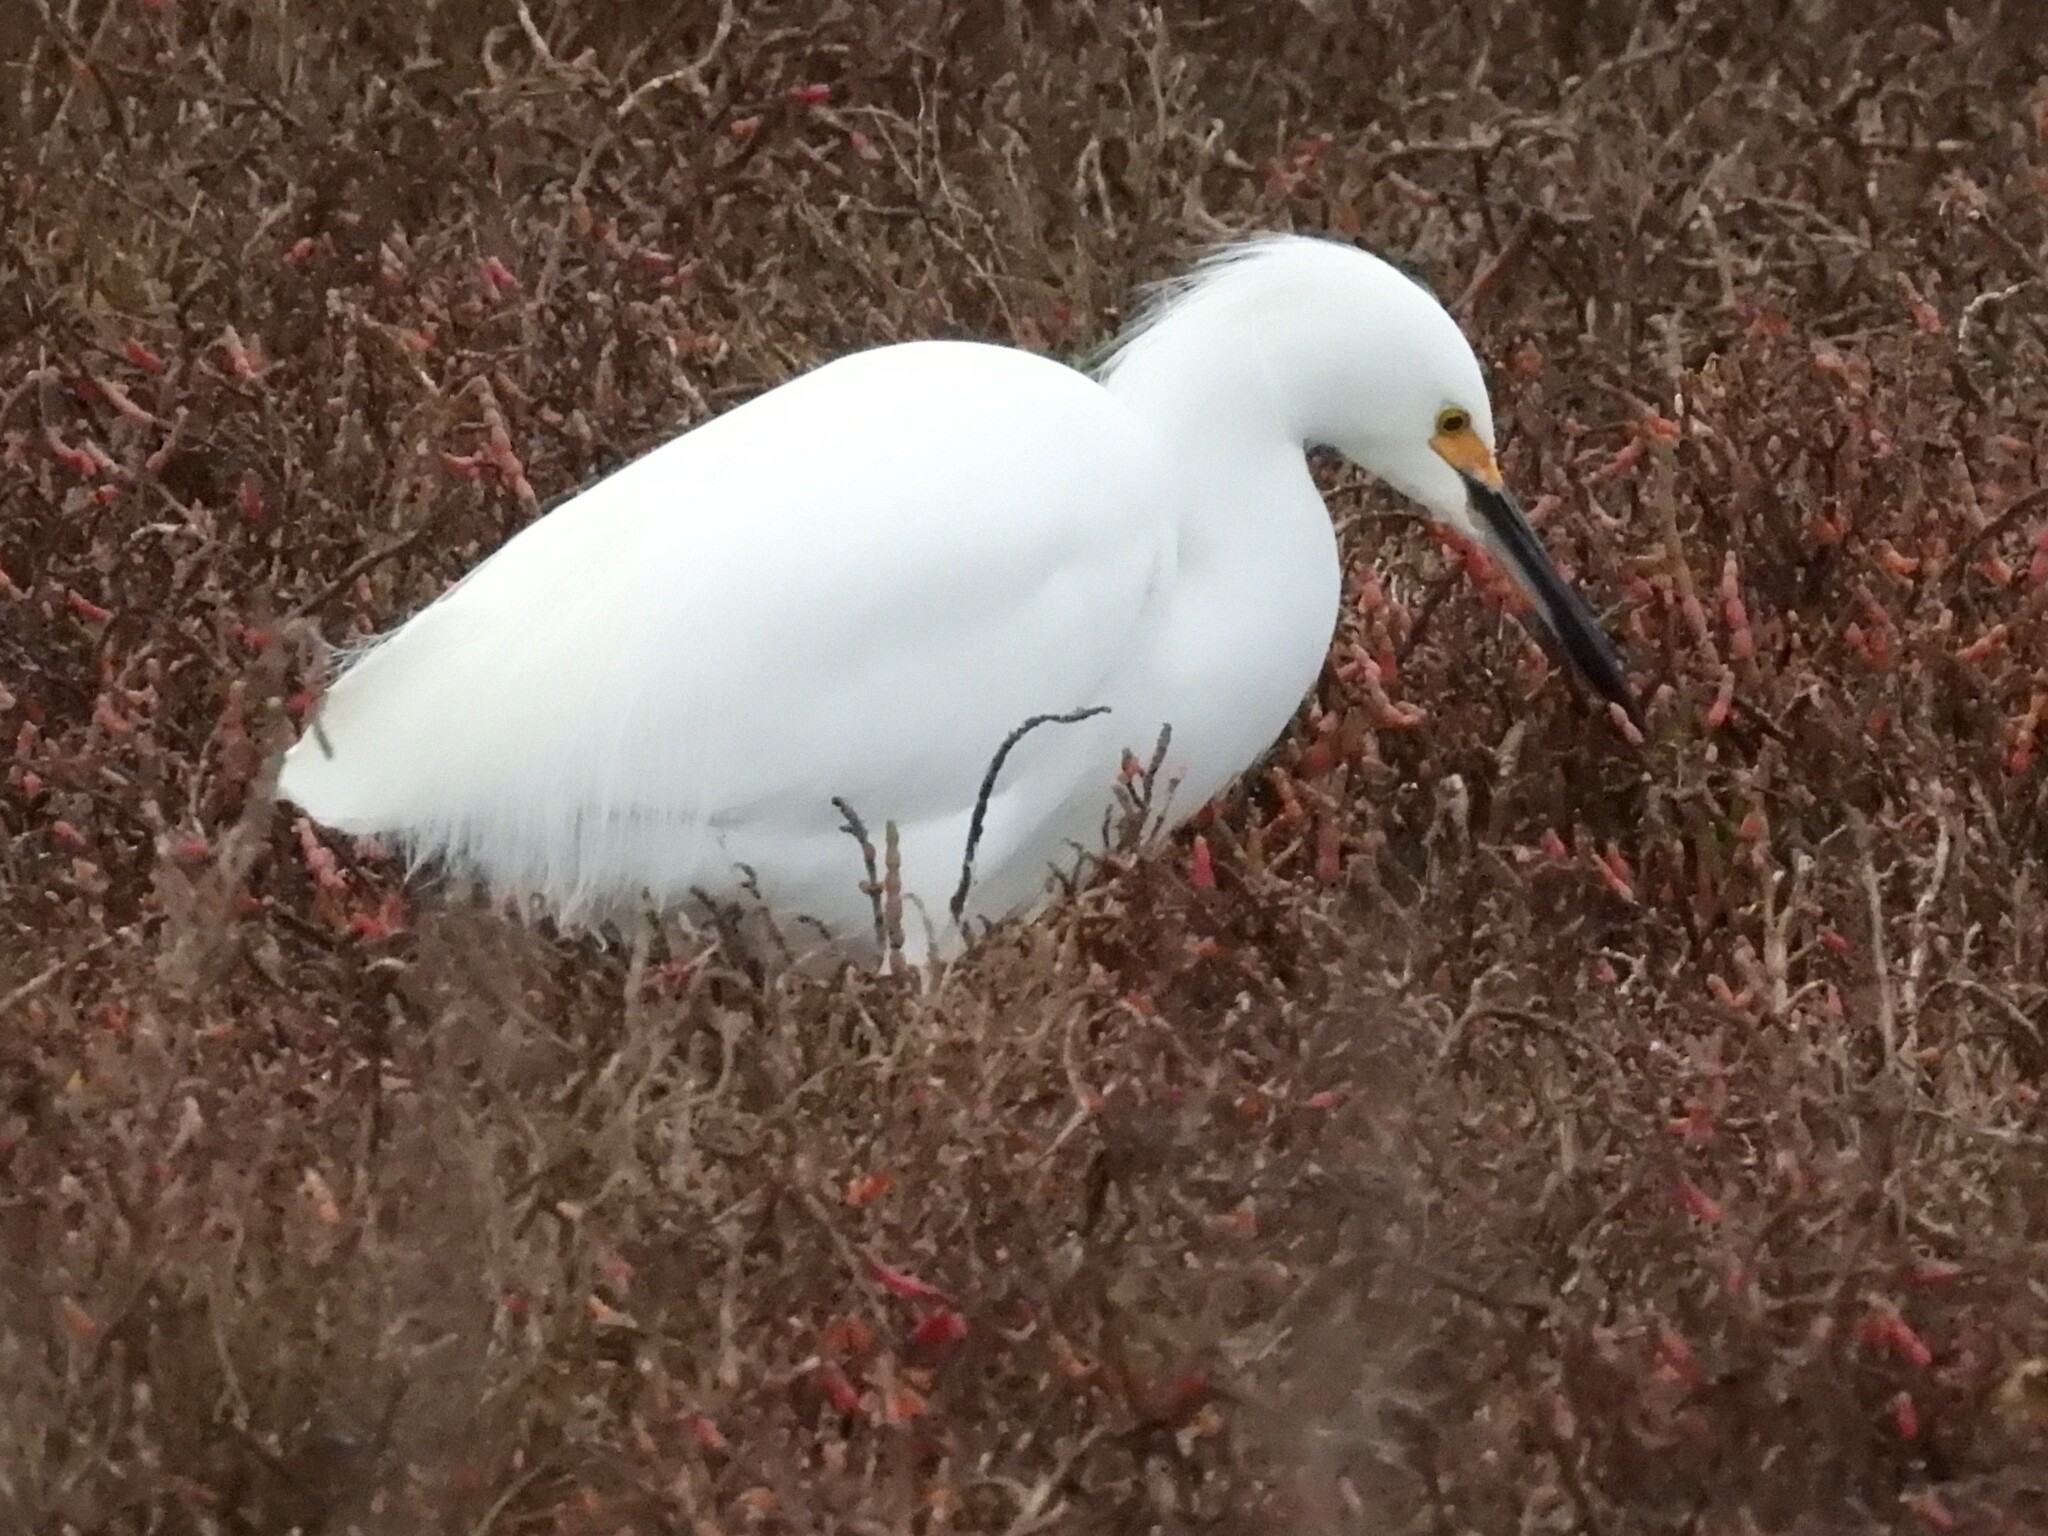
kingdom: Animalia
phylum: Chordata
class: Aves
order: Pelecaniformes
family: Ardeidae
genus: Egretta
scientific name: Egretta thula
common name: Snowy egret
